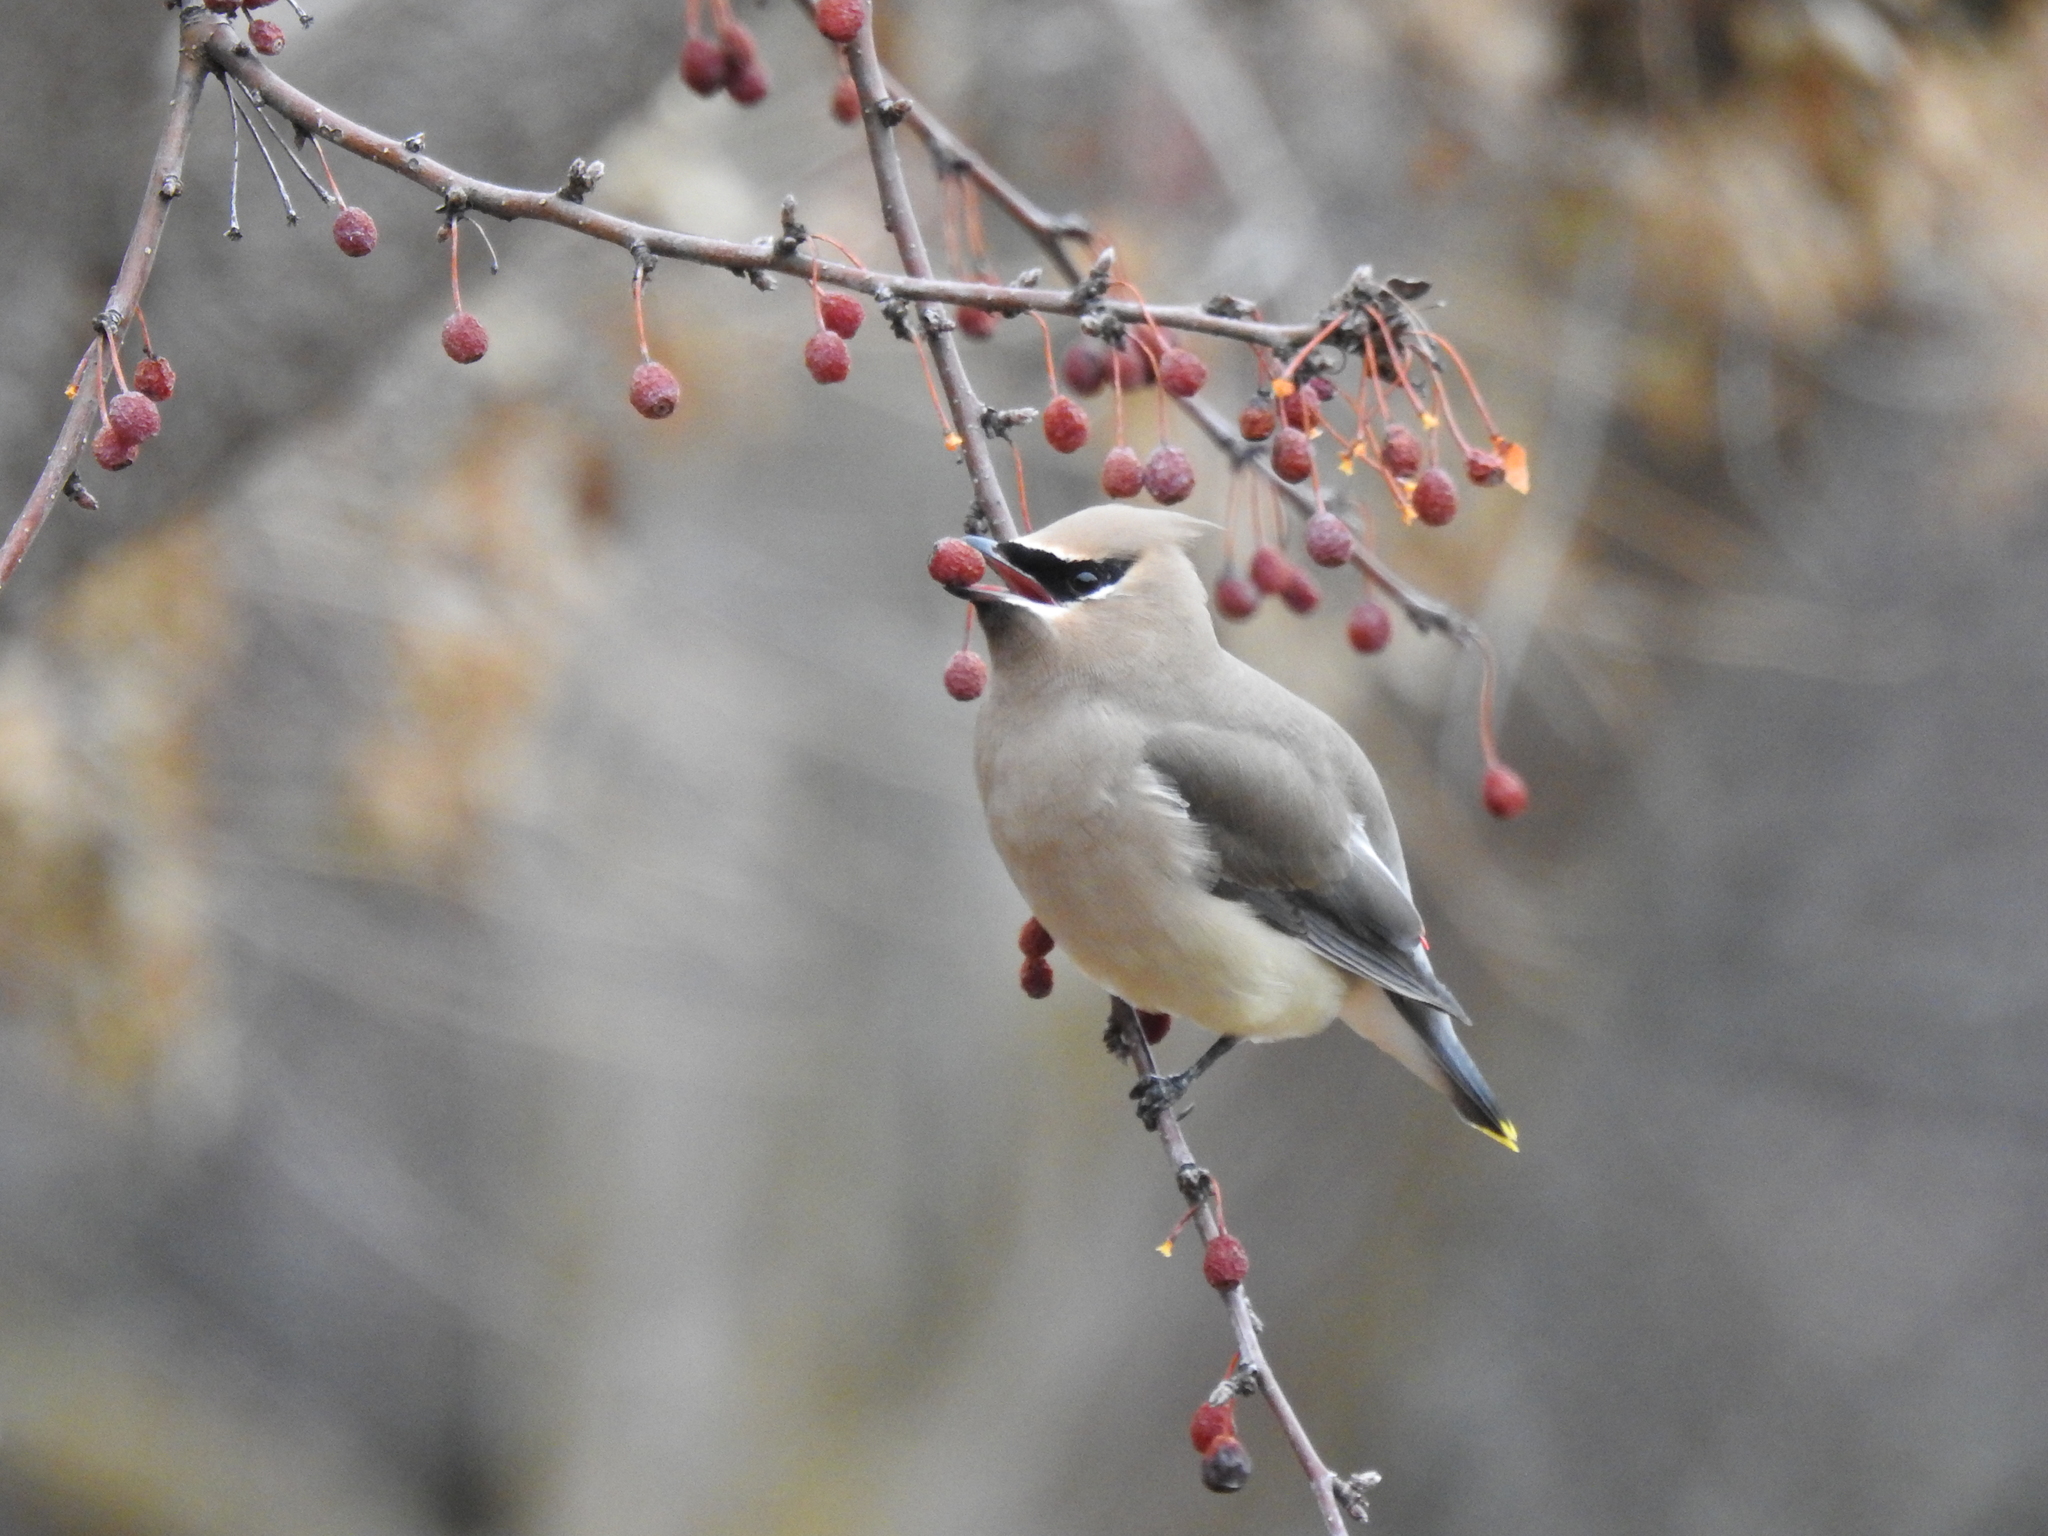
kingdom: Animalia
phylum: Chordata
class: Aves
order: Passeriformes
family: Bombycillidae
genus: Bombycilla
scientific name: Bombycilla cedrorum
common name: Cedar waxwing
